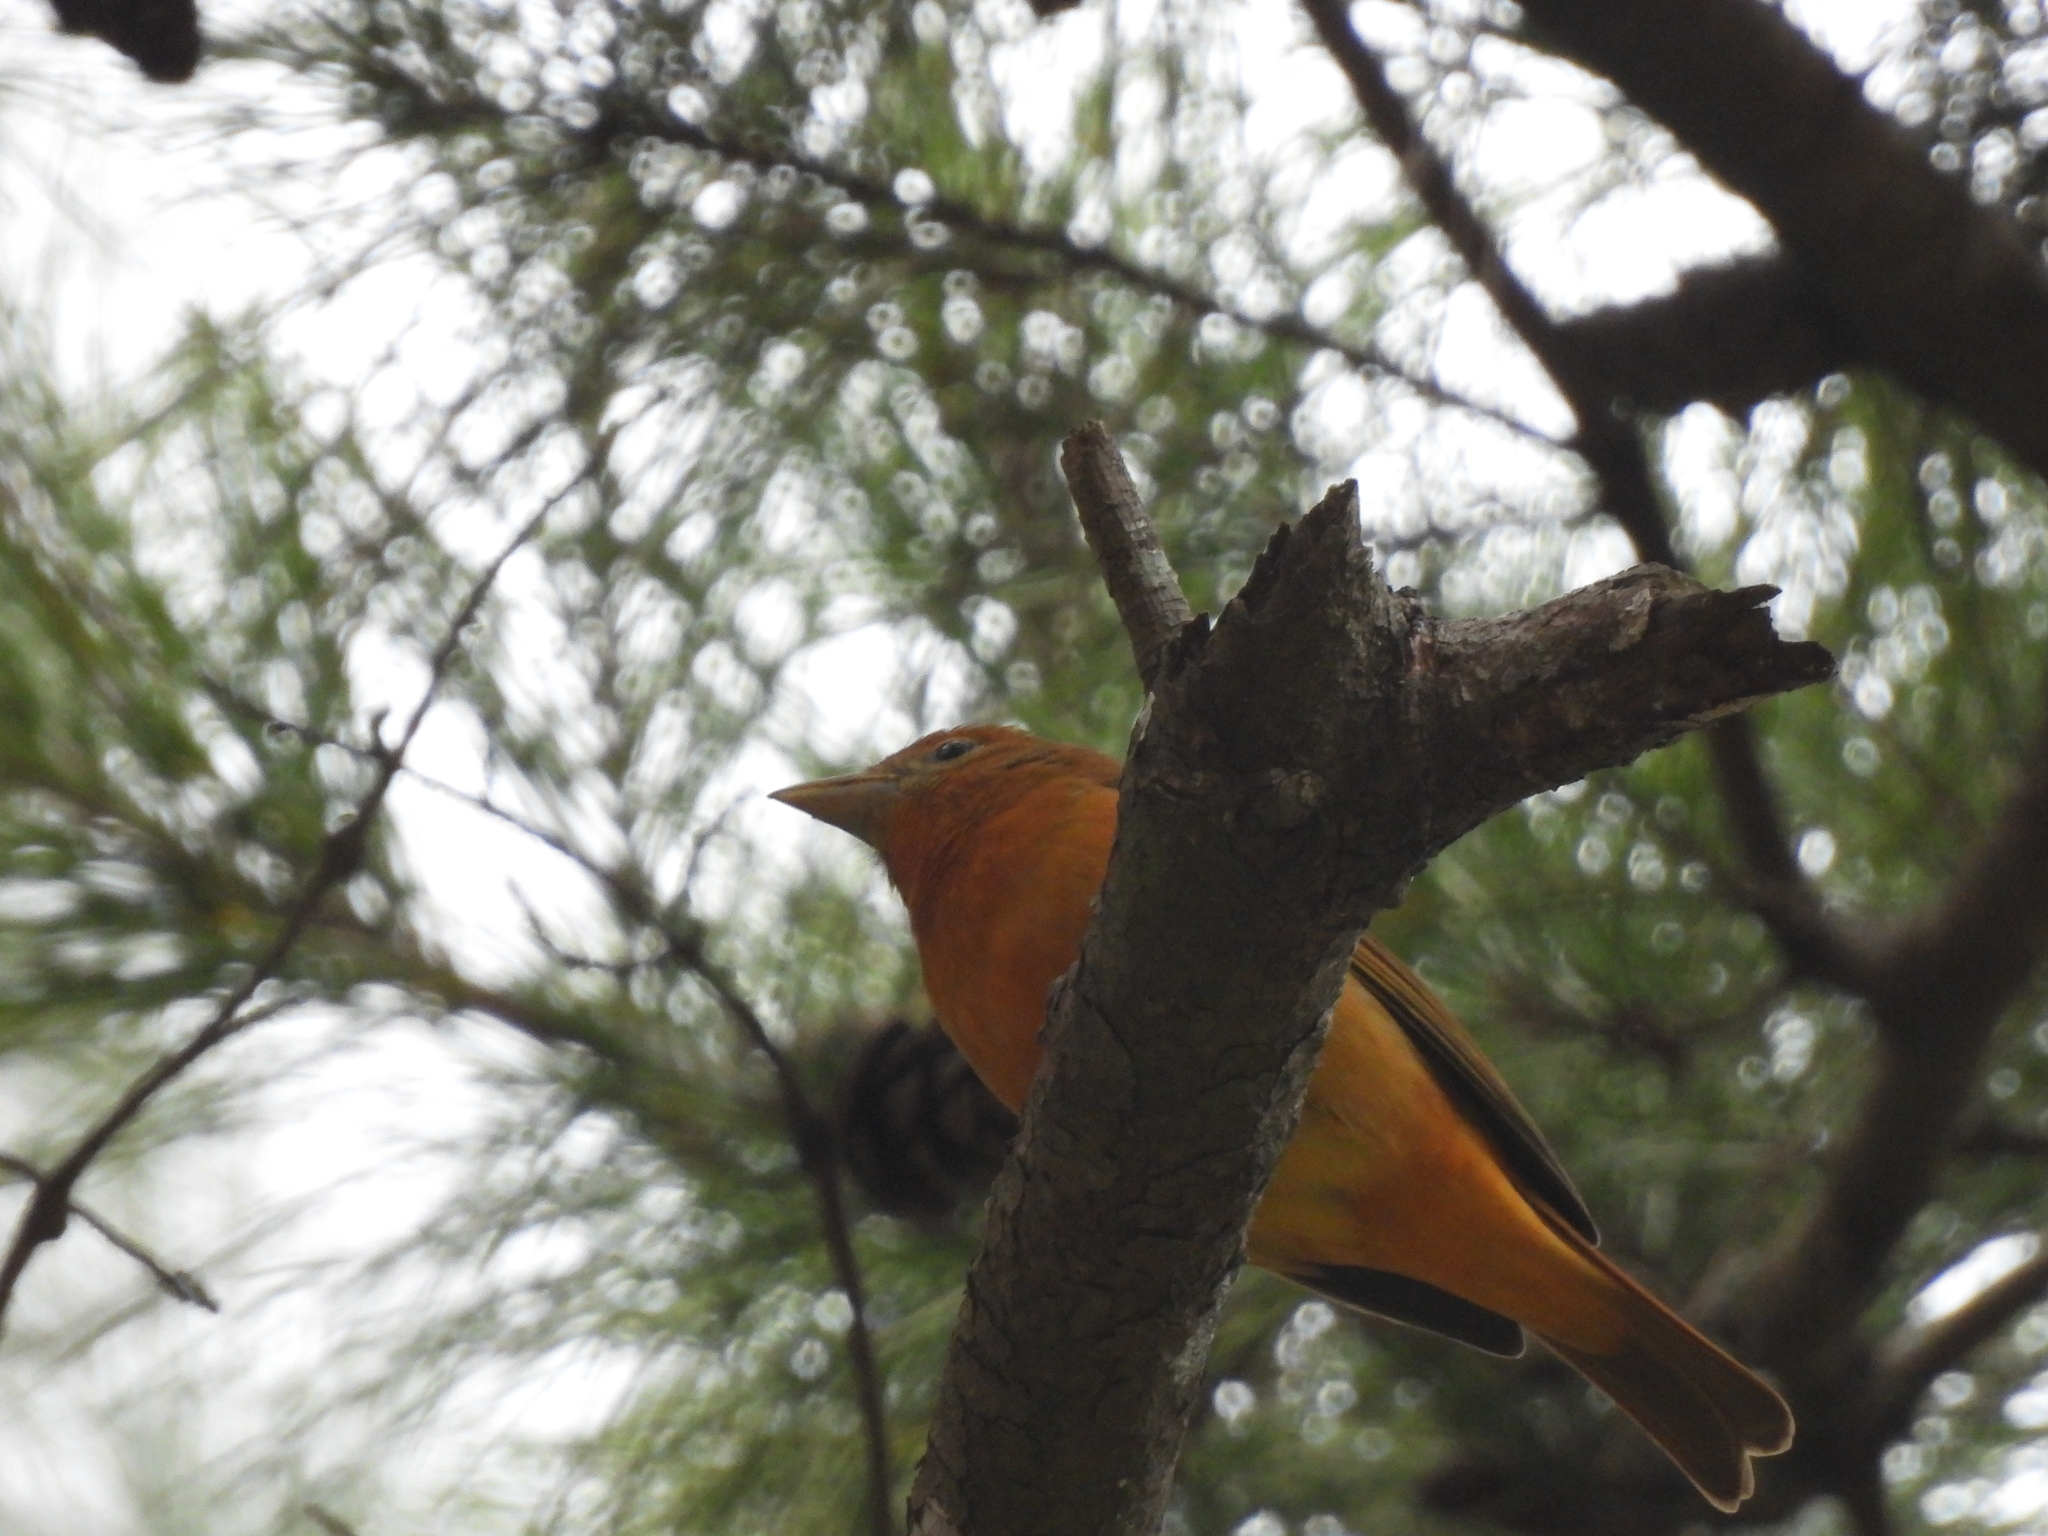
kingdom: Animalia
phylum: Chordata
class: Aves
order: Passeriformes
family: Cardinalidae
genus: Piranga
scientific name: Piranga rubra
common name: Summer tanager
